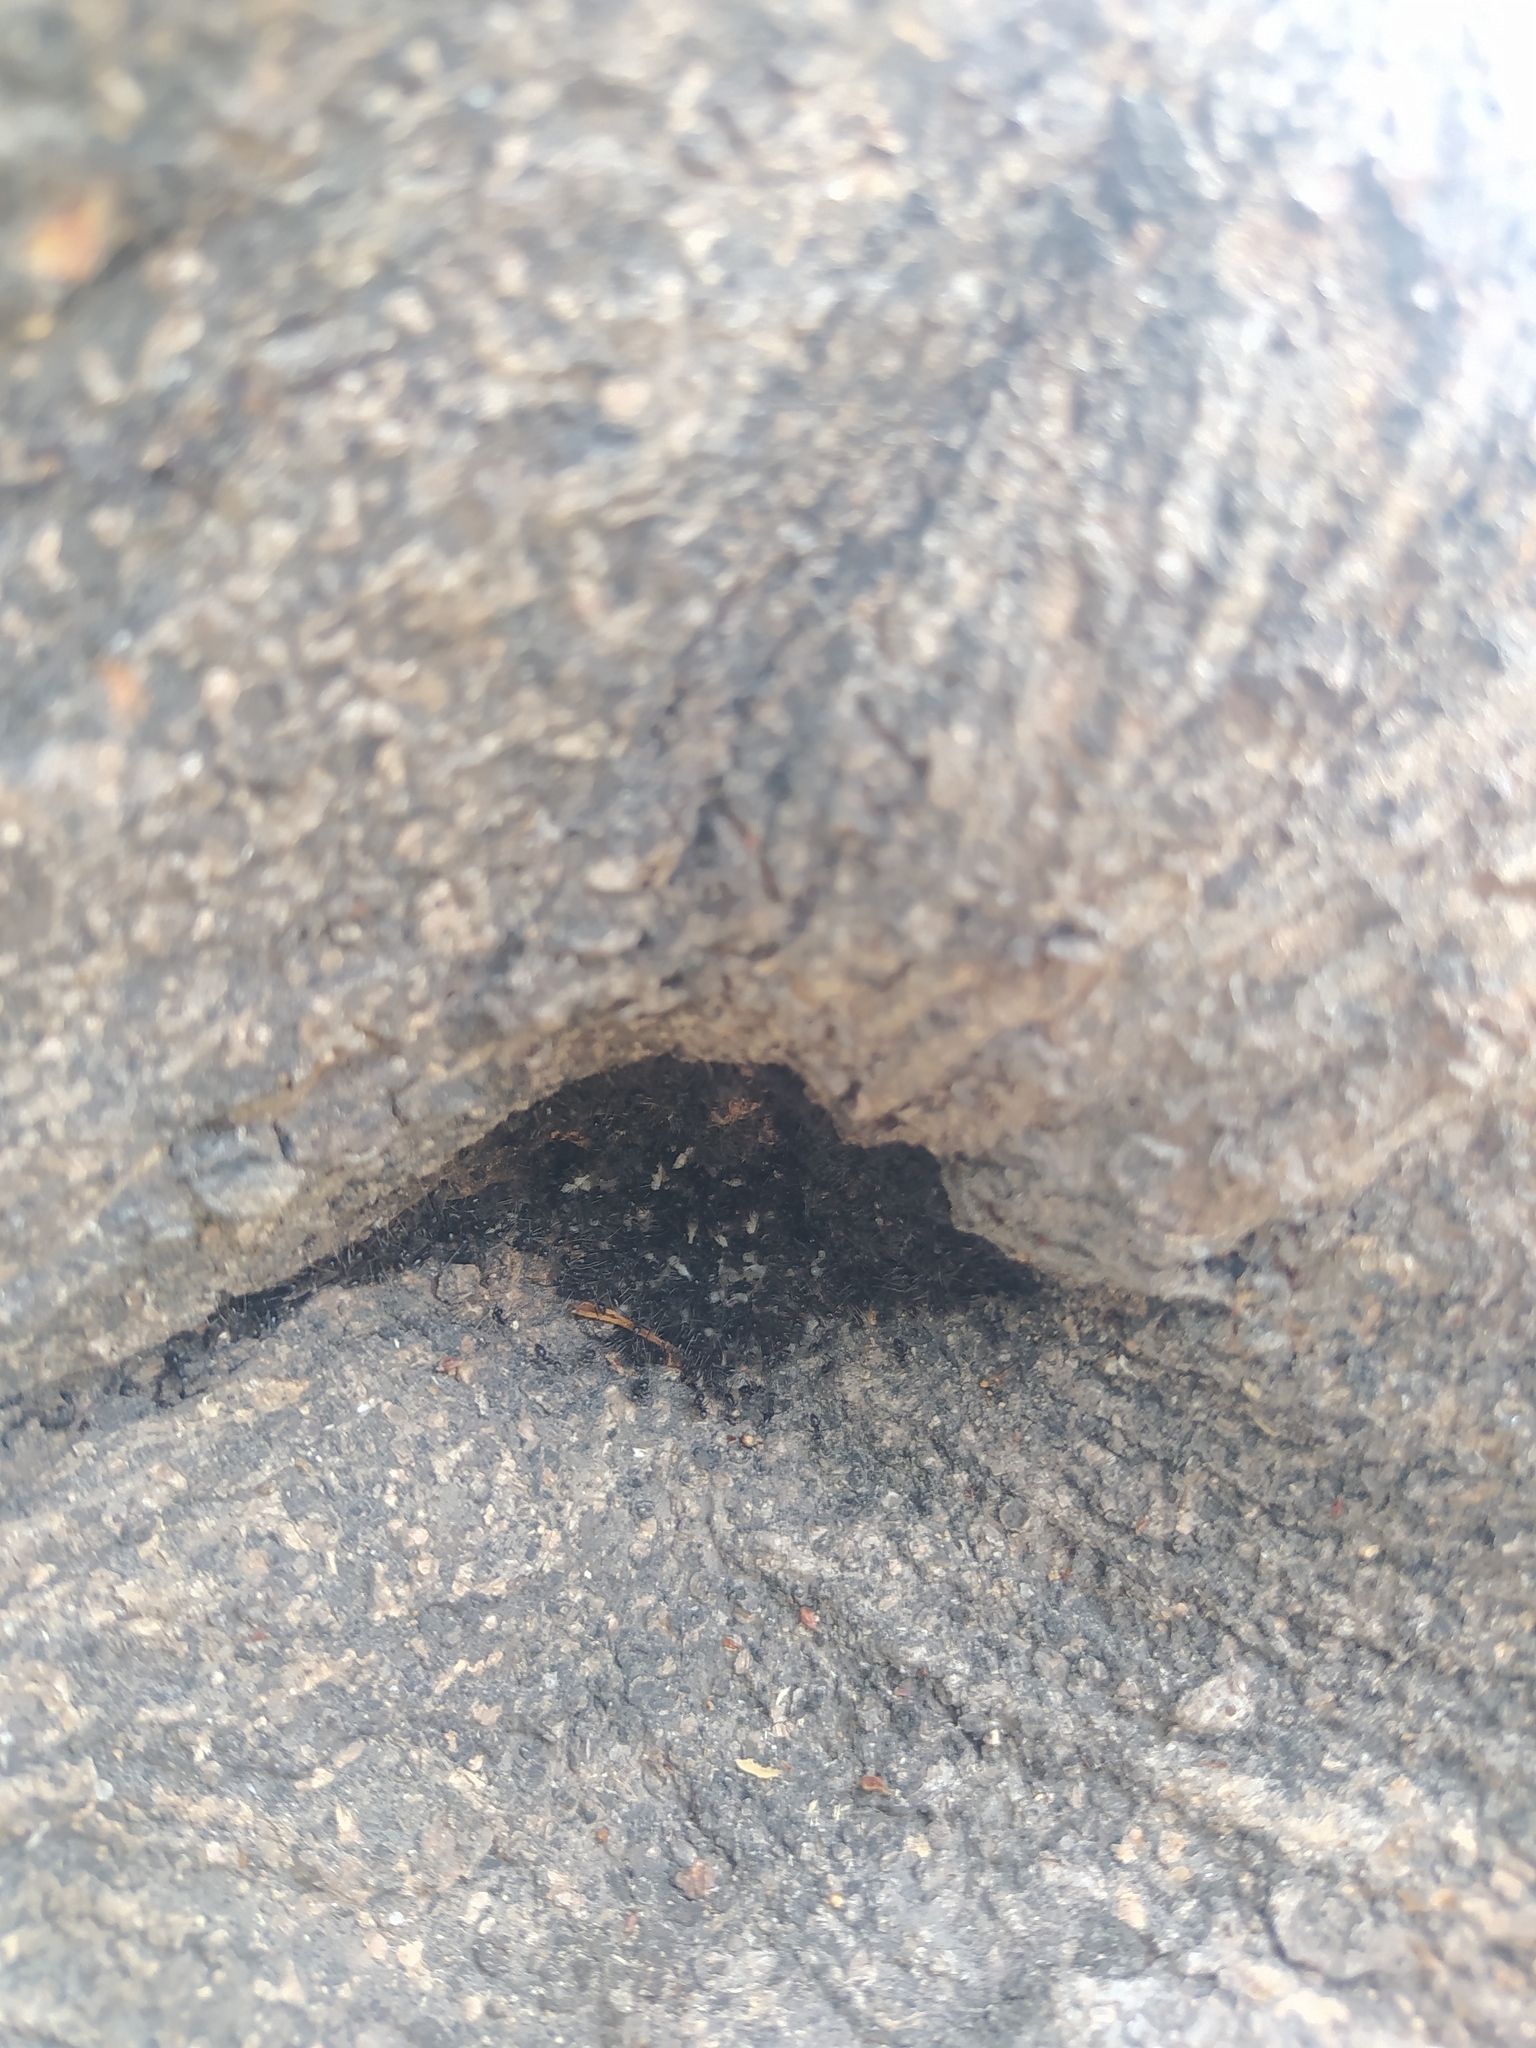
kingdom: Animalia
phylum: Arthropoda
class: Insecta
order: Hymenoptera
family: Formicidae
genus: Paratrechina
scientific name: Paratrechina longicornis
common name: Longhorned crazy ant
